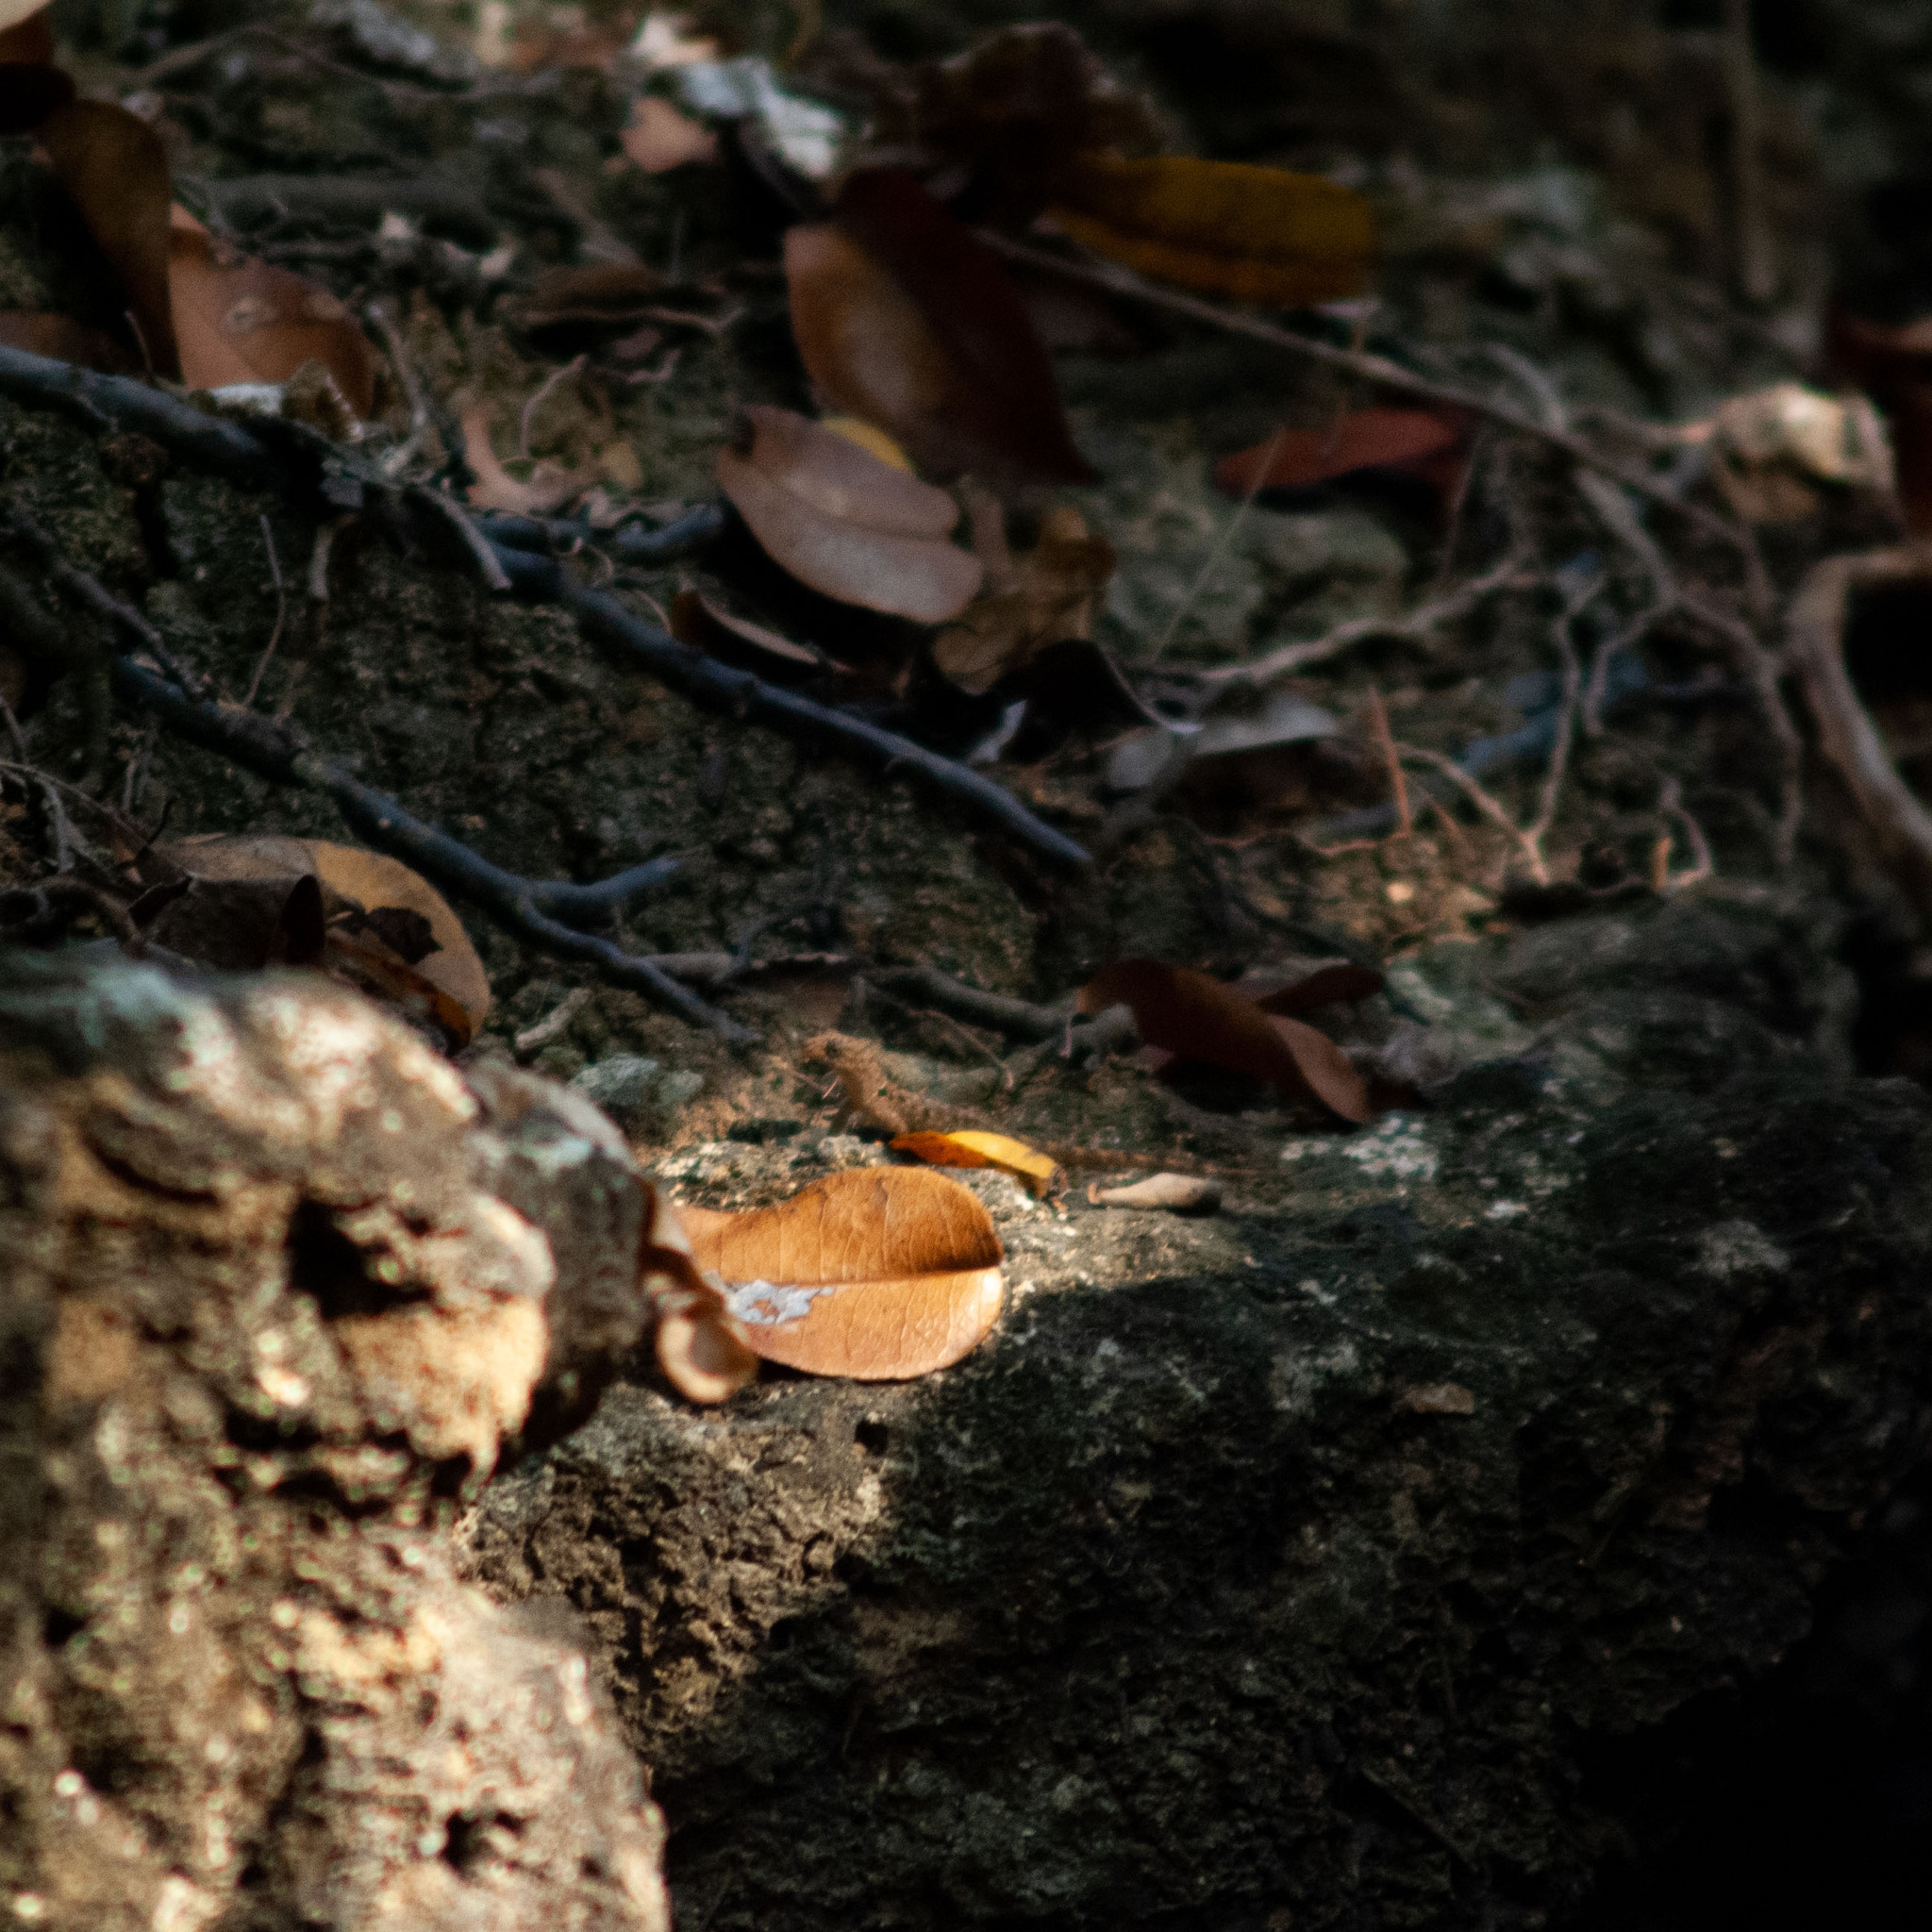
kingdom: Animalia
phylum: Chordata
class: Squamata
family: Sphaerodactylidae
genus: Gonatodes
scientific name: Gonatodes albogularis
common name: Yellow-headed gecko
